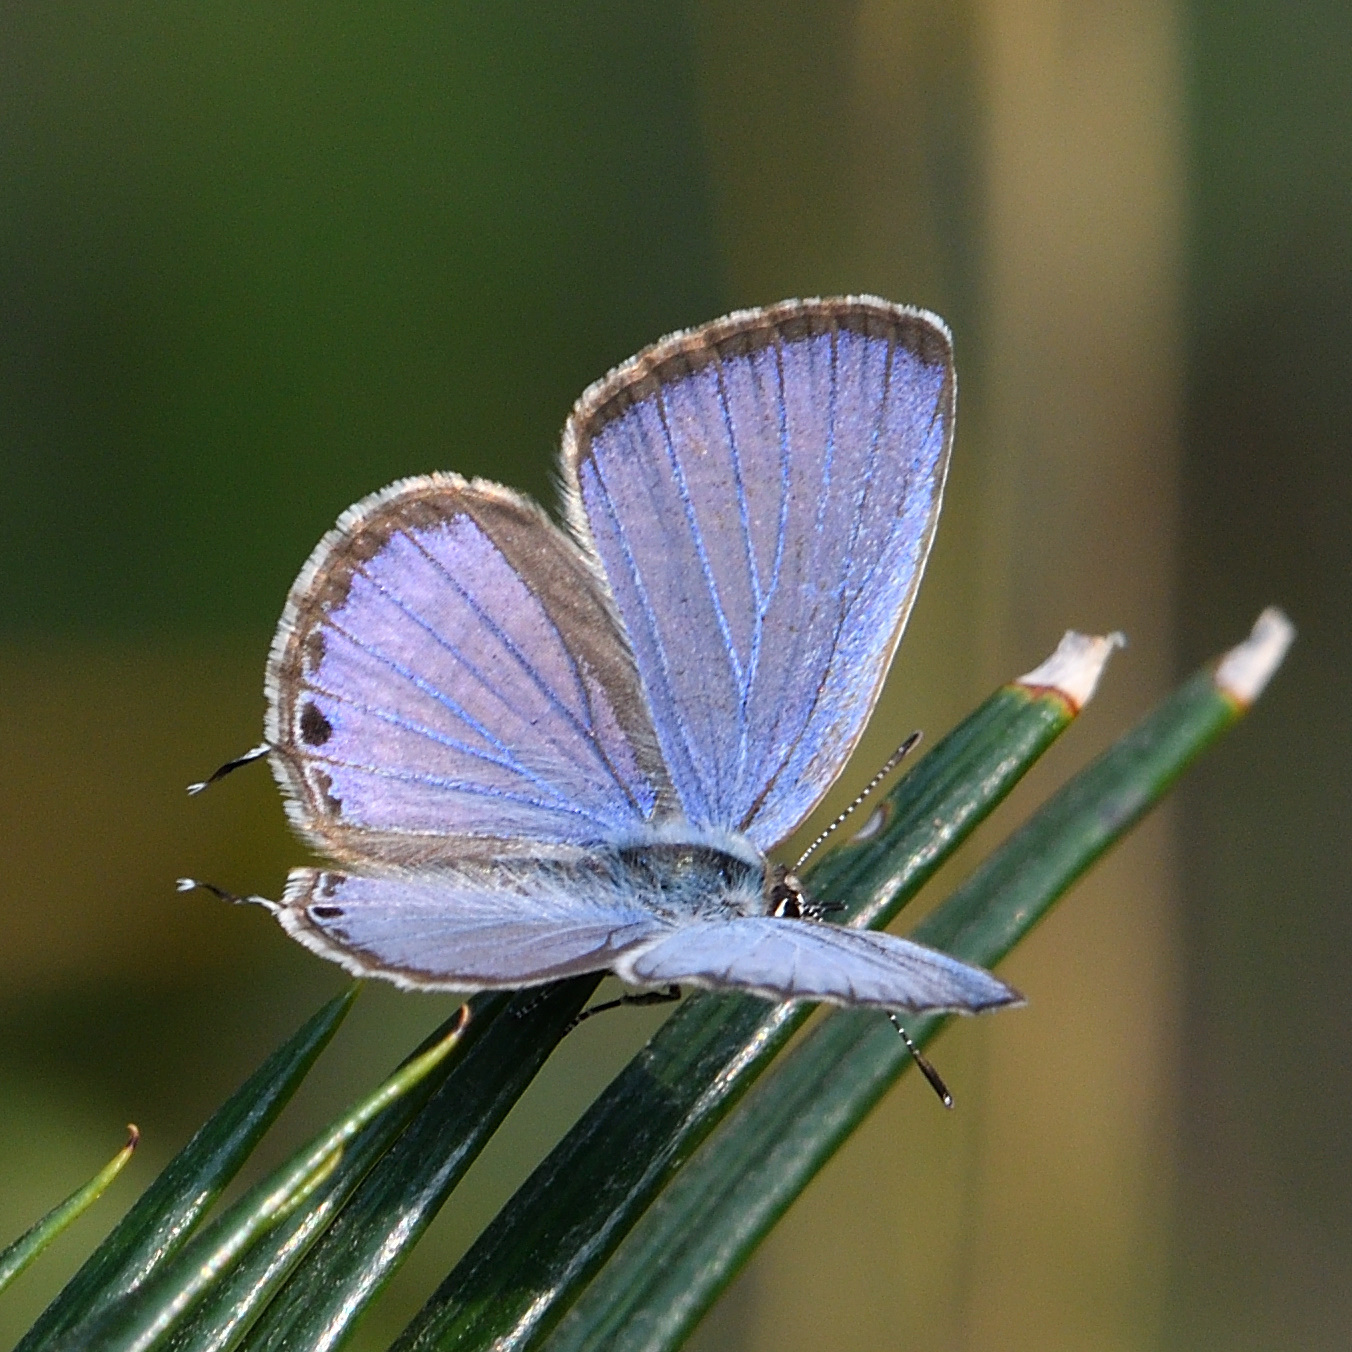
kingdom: Animalia
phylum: Arthropoda
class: Insecta
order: Lepidoptera
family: Lycaenidae
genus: Luthrodes
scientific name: Luthrodes pandava
